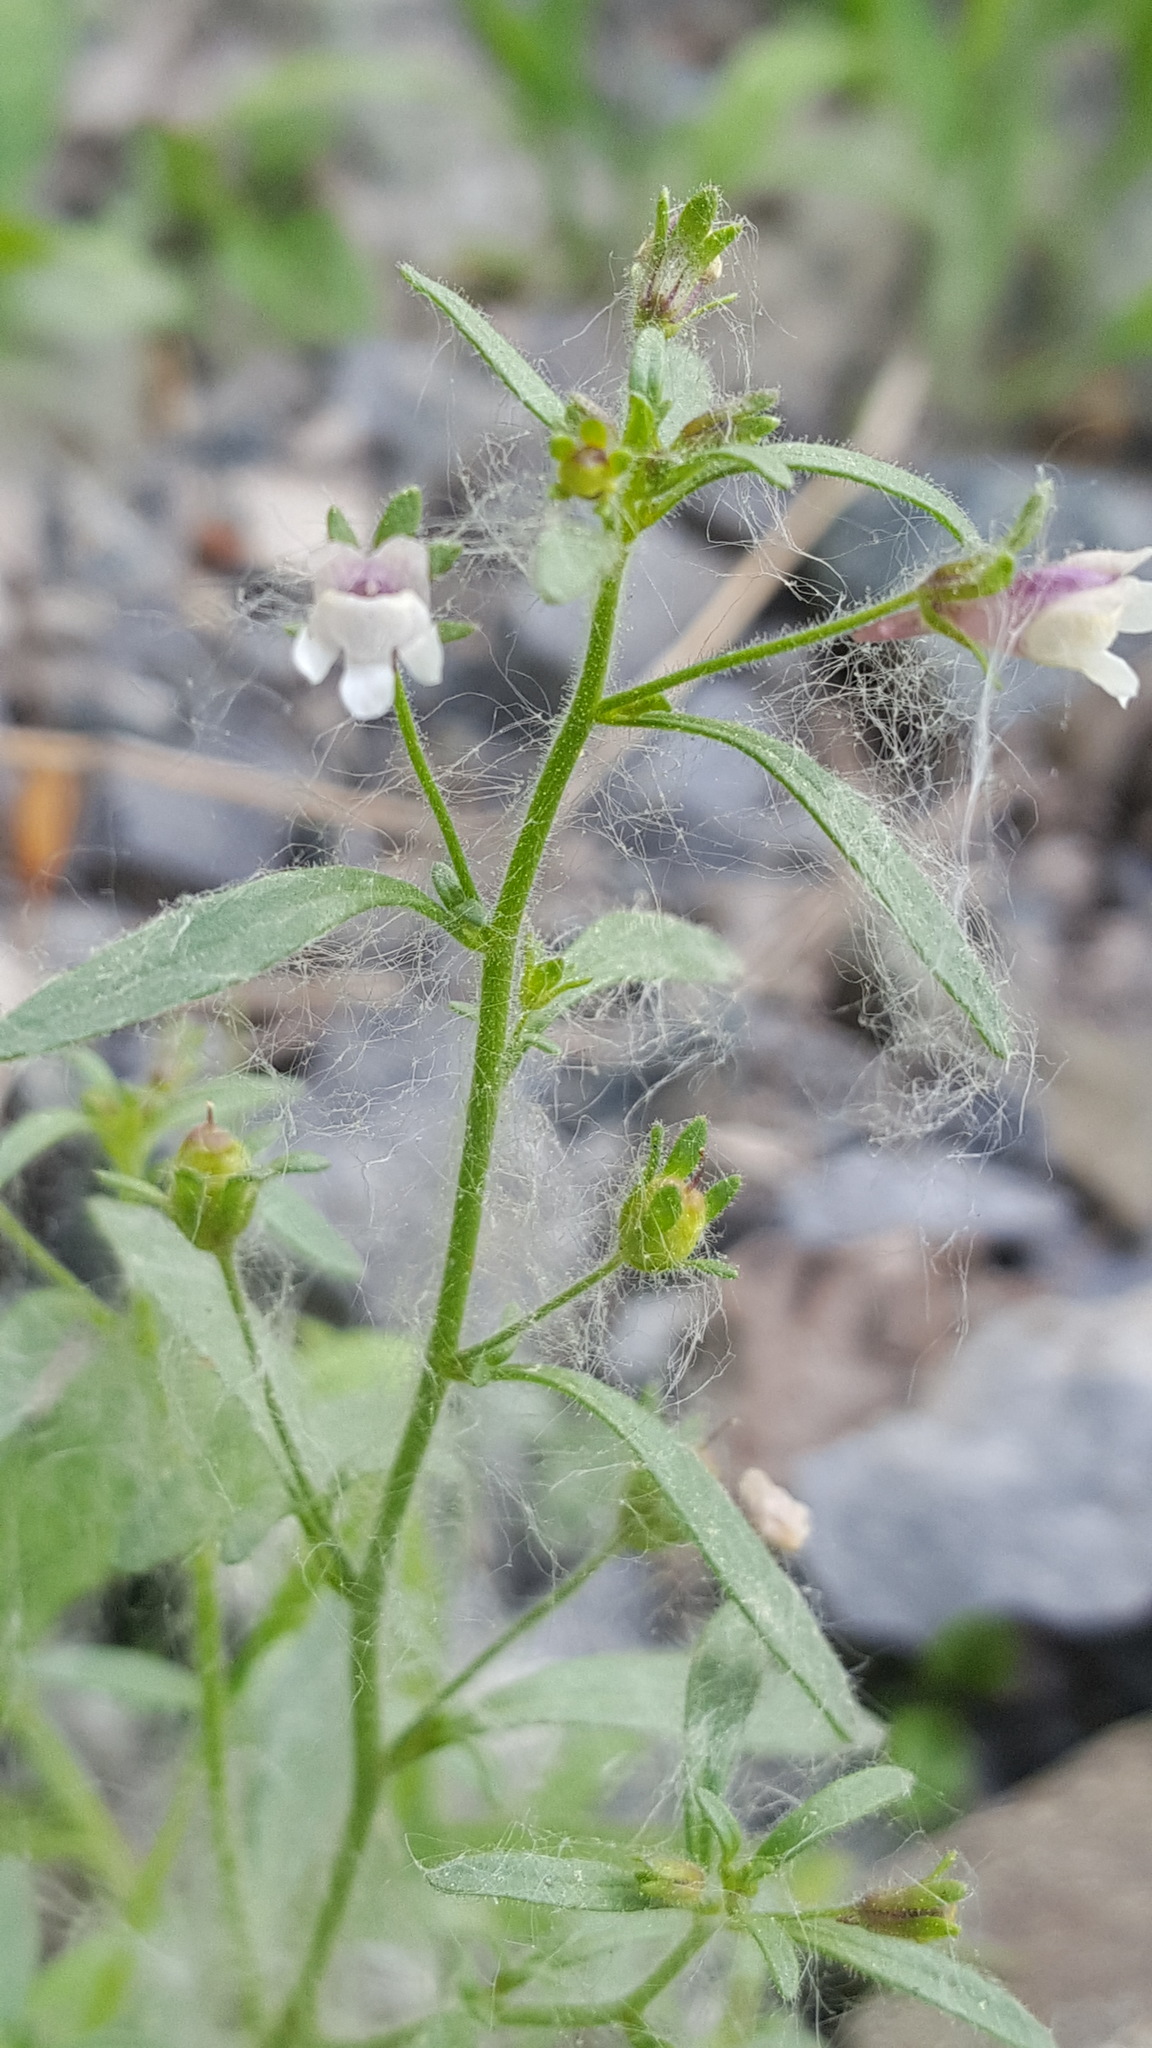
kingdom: Plantae
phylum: Tracheophyta
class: Magnoliopsida
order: Lamiales
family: Plantaginaceae
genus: Chaenorhinum
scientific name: Chaenorhinum minus
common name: Dwarf snapdragon
